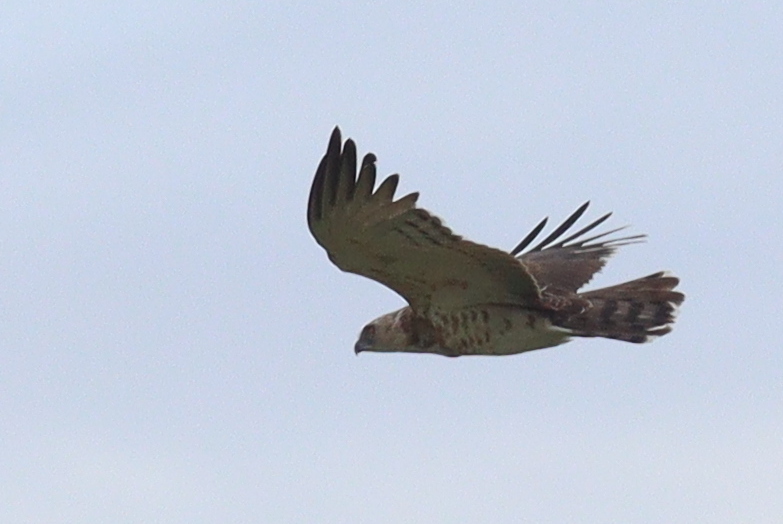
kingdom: Animalia
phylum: Chordata
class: Aves
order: Accipitriformes
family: Accipitridae
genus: Circaetus
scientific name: Circaetus pectoralis
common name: Black-chested snake eagle
